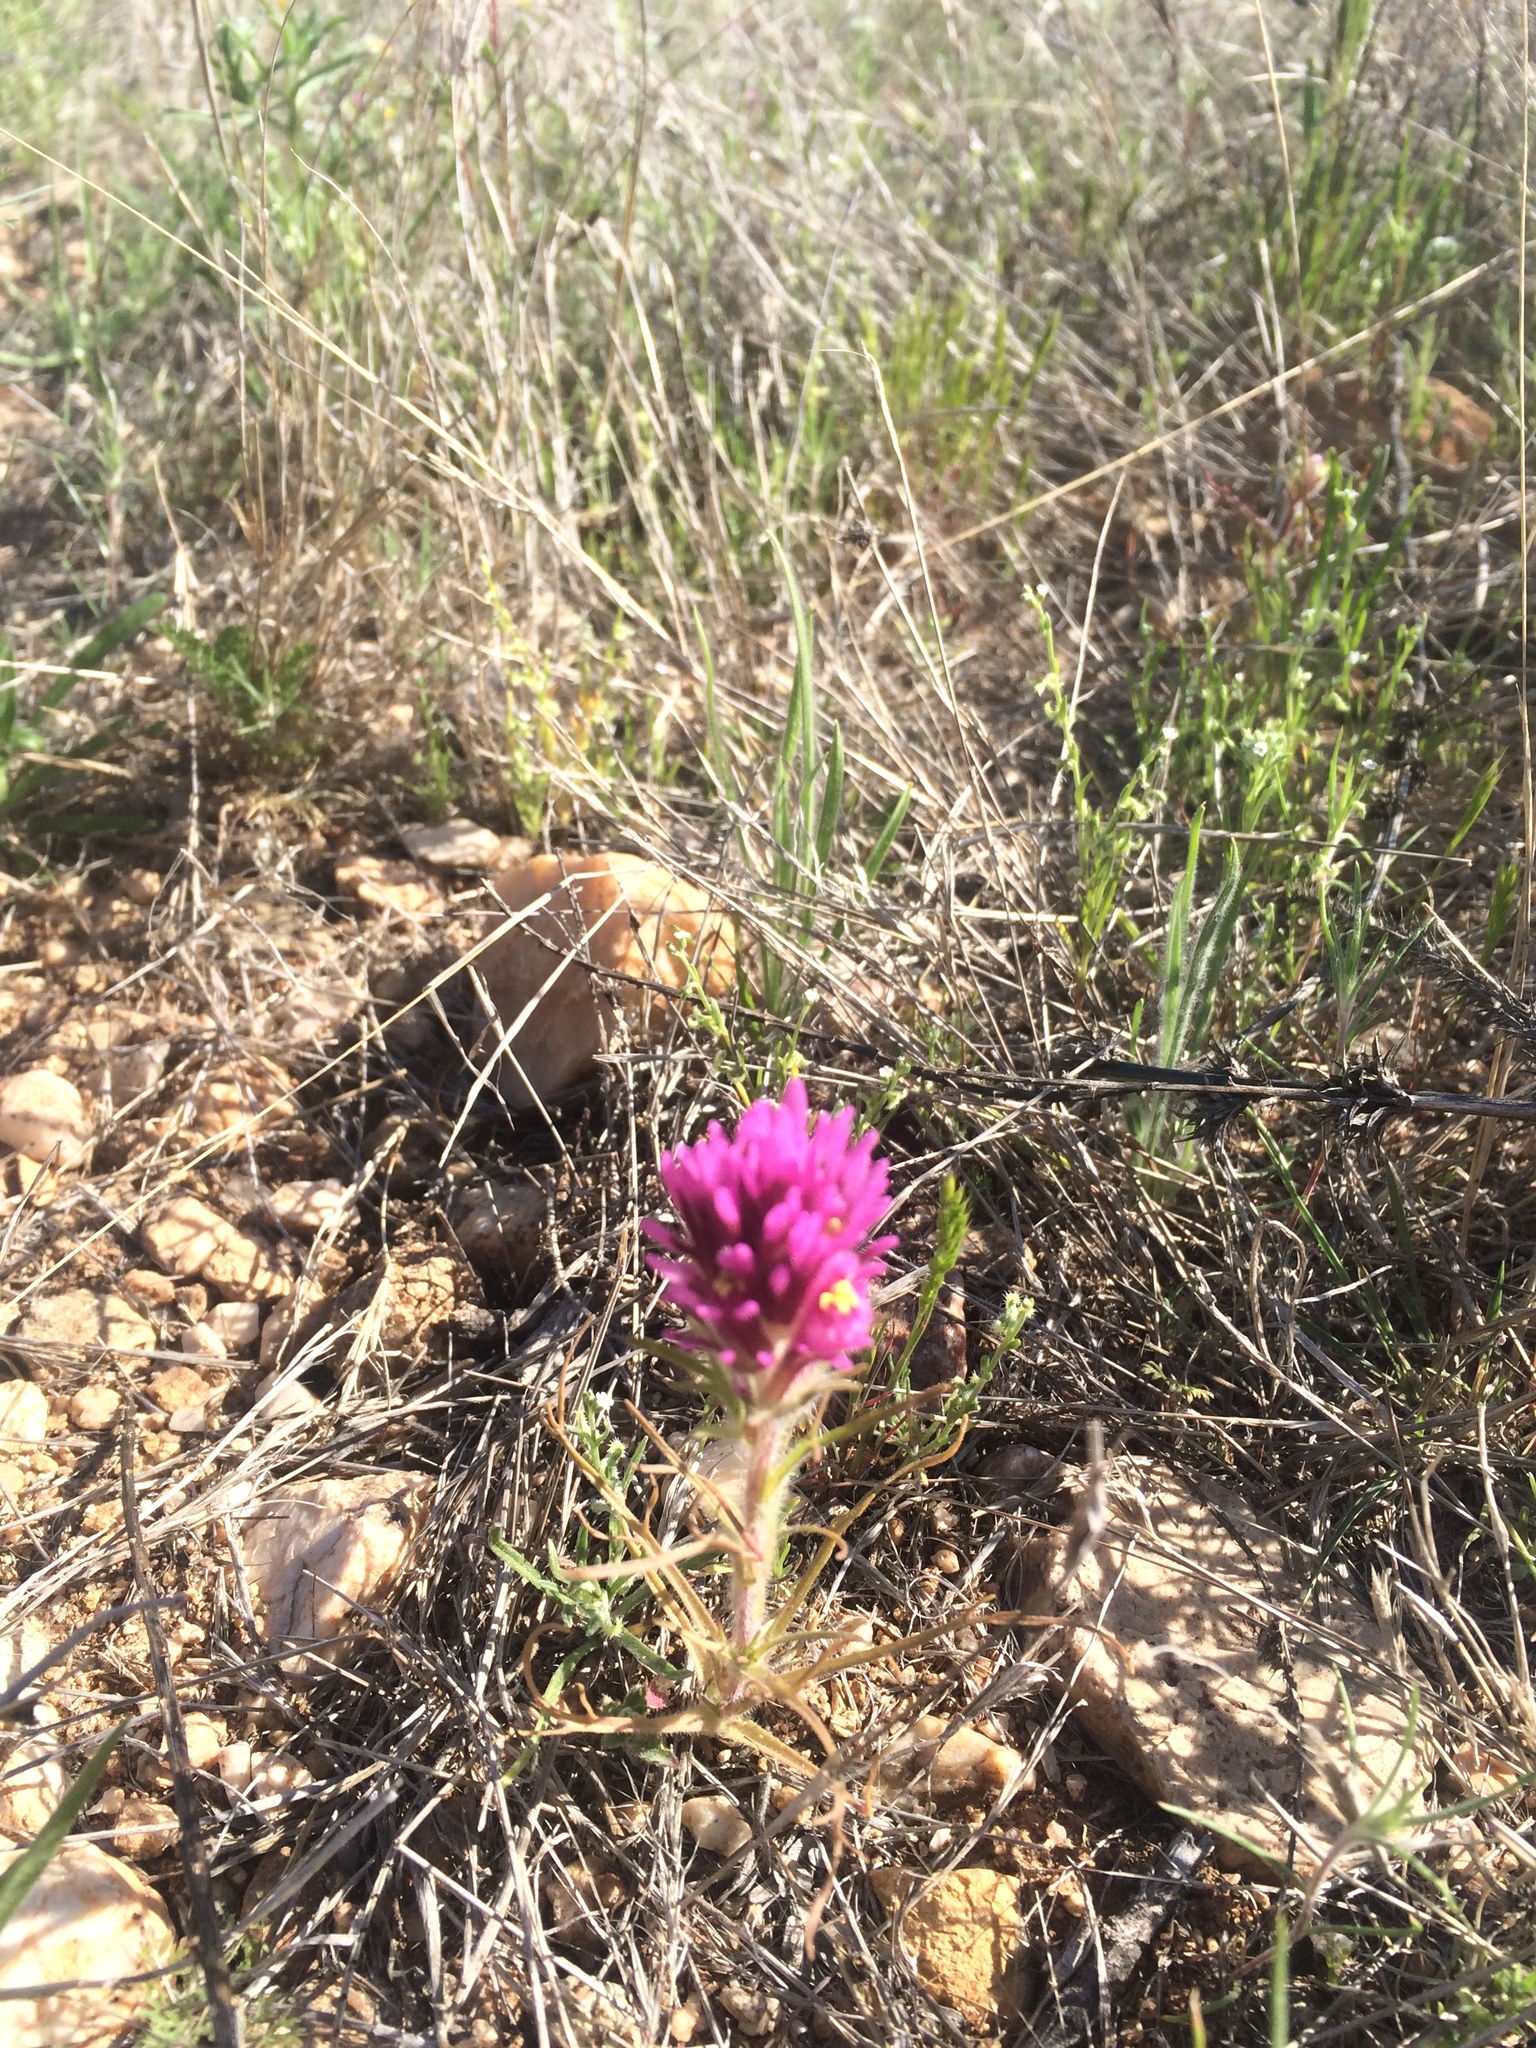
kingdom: Plantae
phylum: Tracheophyta
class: Magnoliopsida
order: Lamiales
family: Orobanchaceae
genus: Castilleja
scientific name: Castilleja exserta
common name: Purple owl-clover
